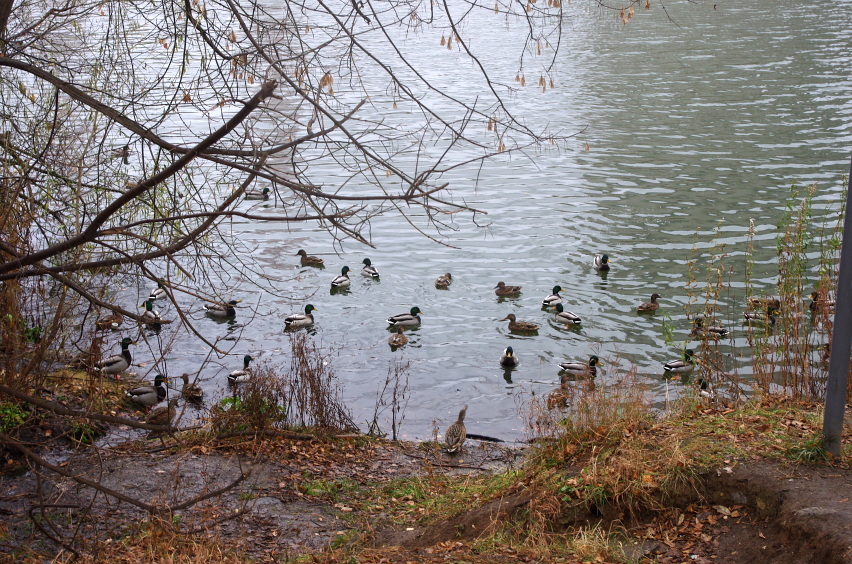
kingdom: Animalia
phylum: Chordata
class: Aves
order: Anseriformes
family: Anatidae
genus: Anas
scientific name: Anas platyrhynchos
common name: Mallard
